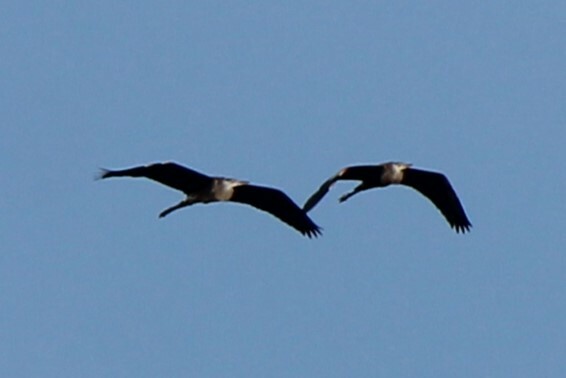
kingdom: Animalia
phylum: Chordata
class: Aves
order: Pelecaniformes
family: Ardeidae
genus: Ardea
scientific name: Ardea herodias
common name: Great blue heron
